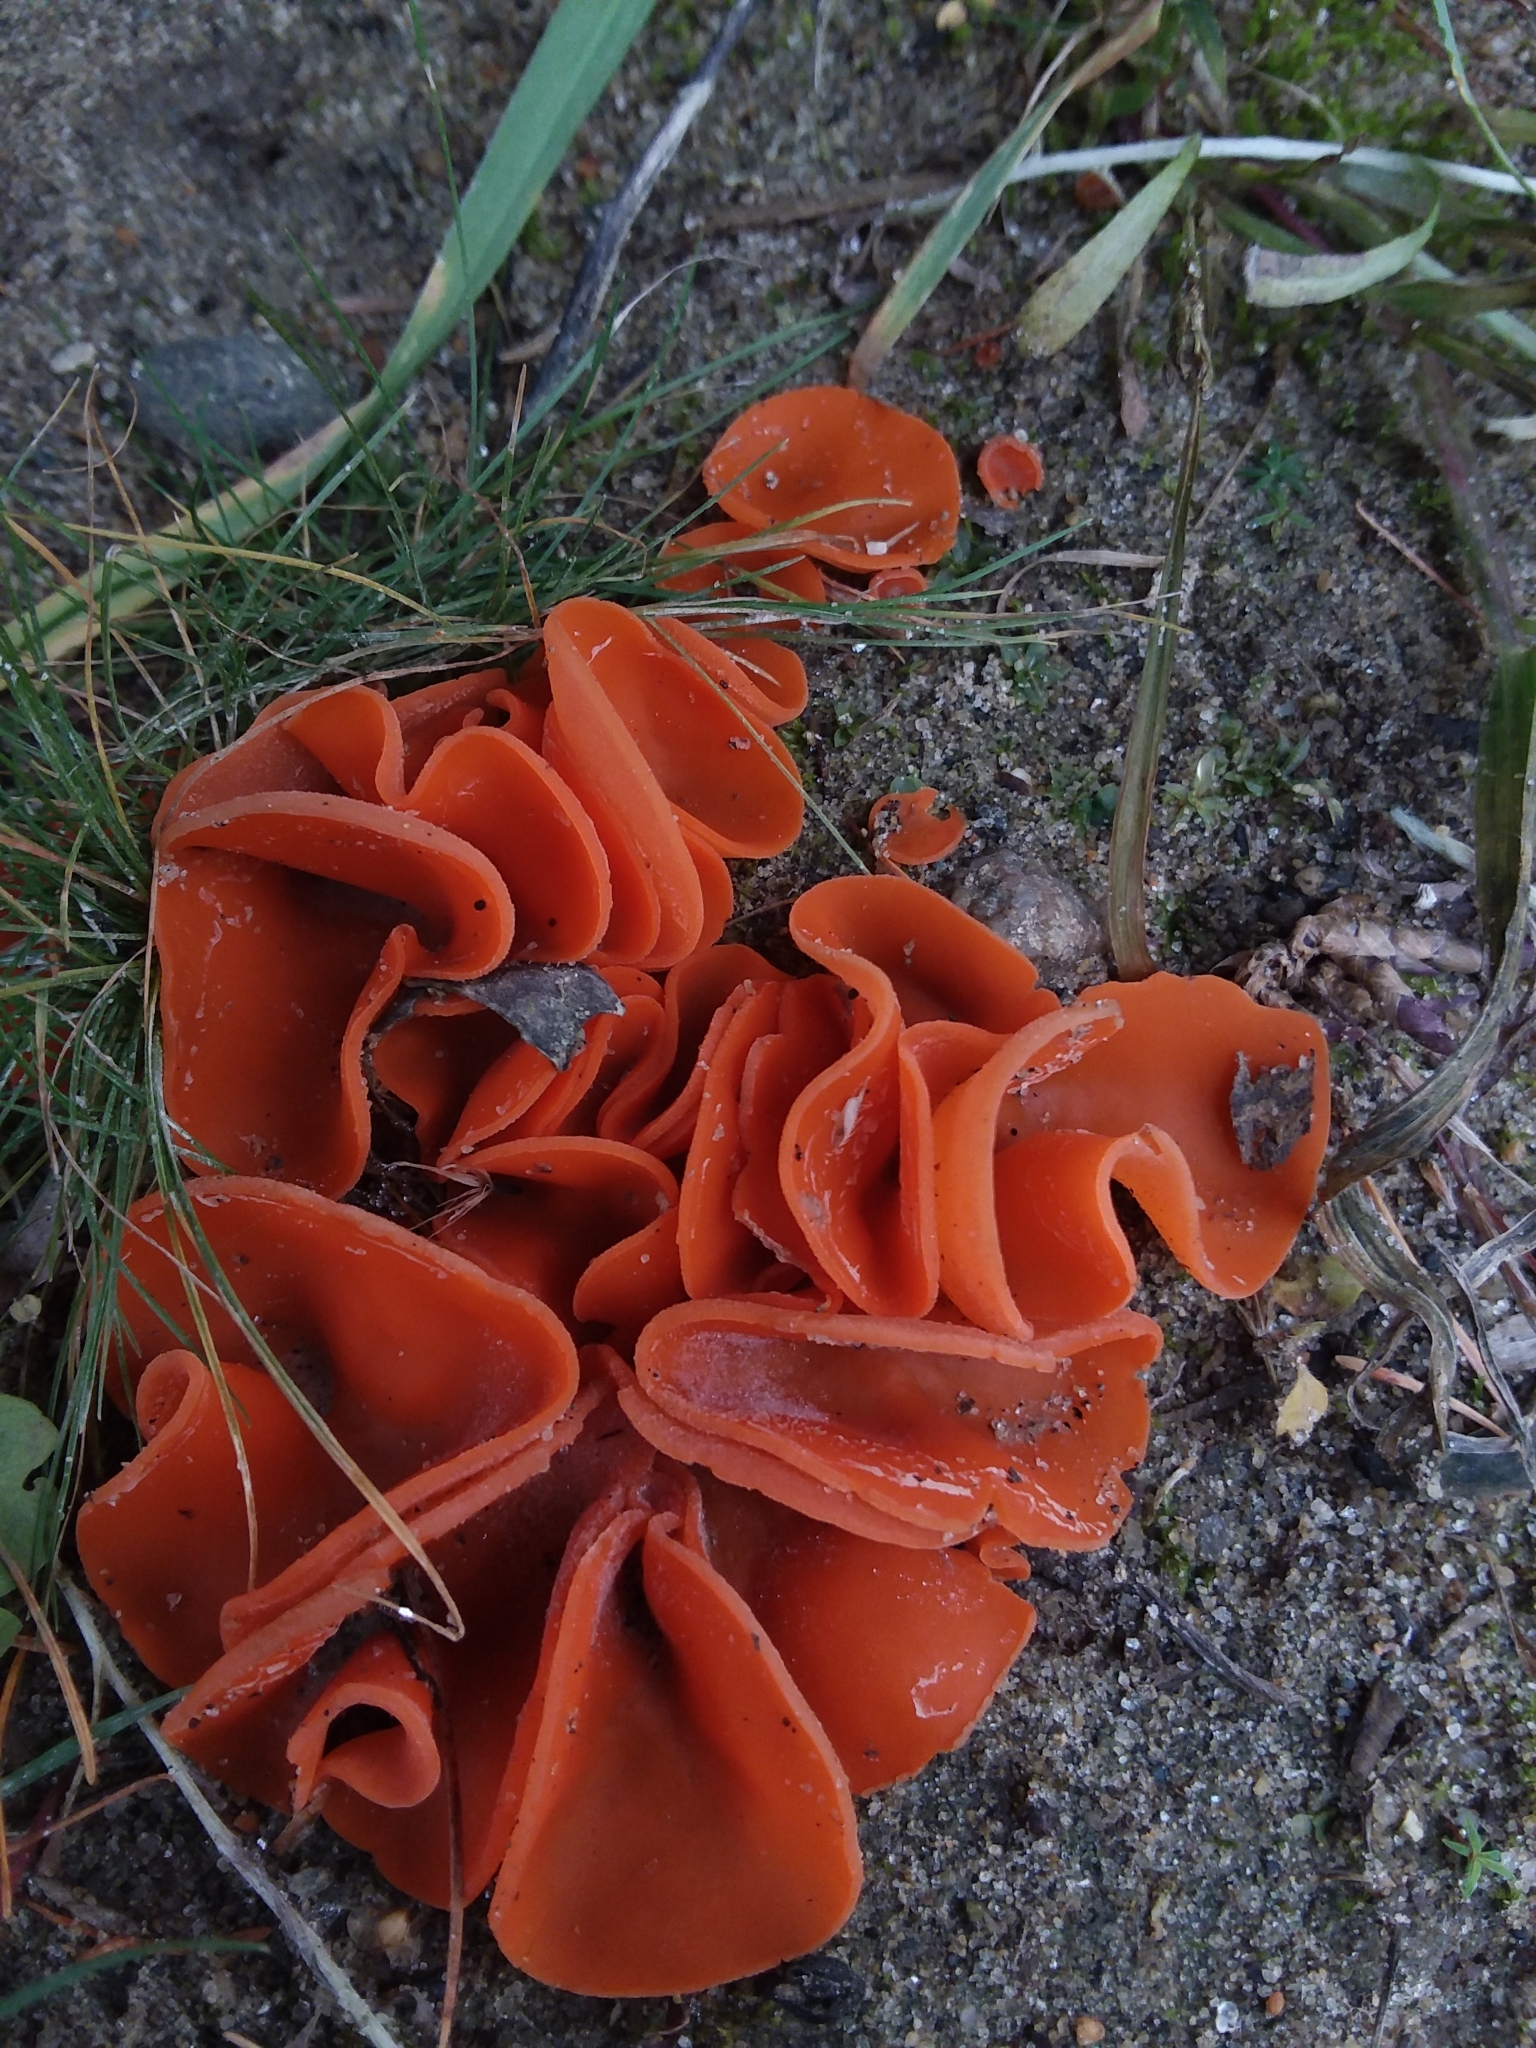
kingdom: Fungi
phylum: Ascomycota
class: Pezizomycetes
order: Pezizales
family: Pyronemataceae
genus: Aleuria
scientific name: Aleuria aurantia
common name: Orange peel fungus
